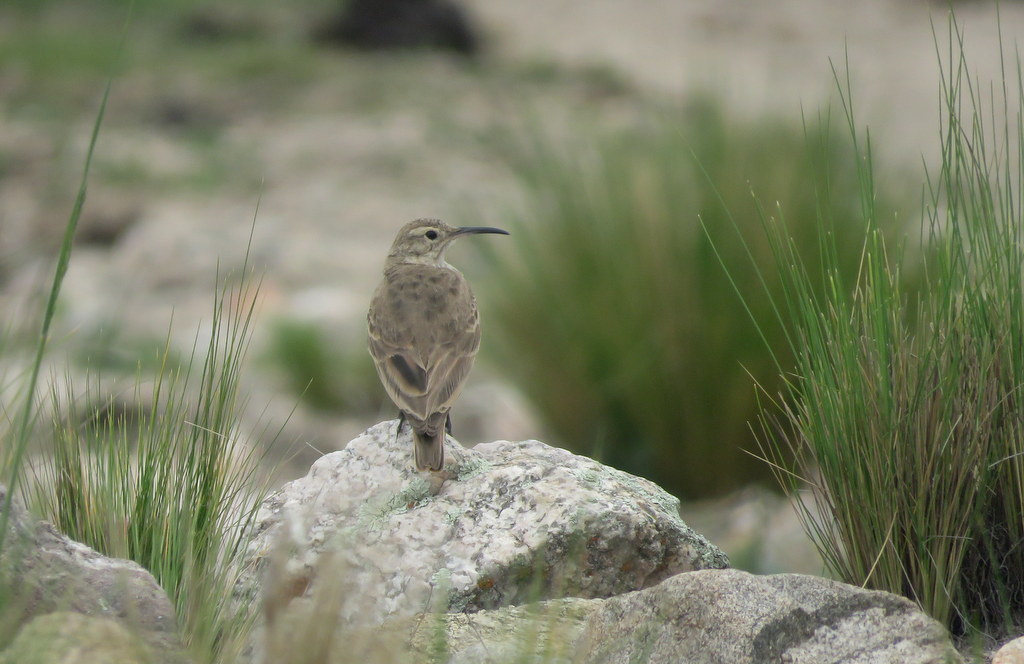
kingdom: Animalia
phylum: Chordata
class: Aves
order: Passeriformes
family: Furnariidae
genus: Geositta
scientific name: Geositta tenuirostris
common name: Slender-billed miner
